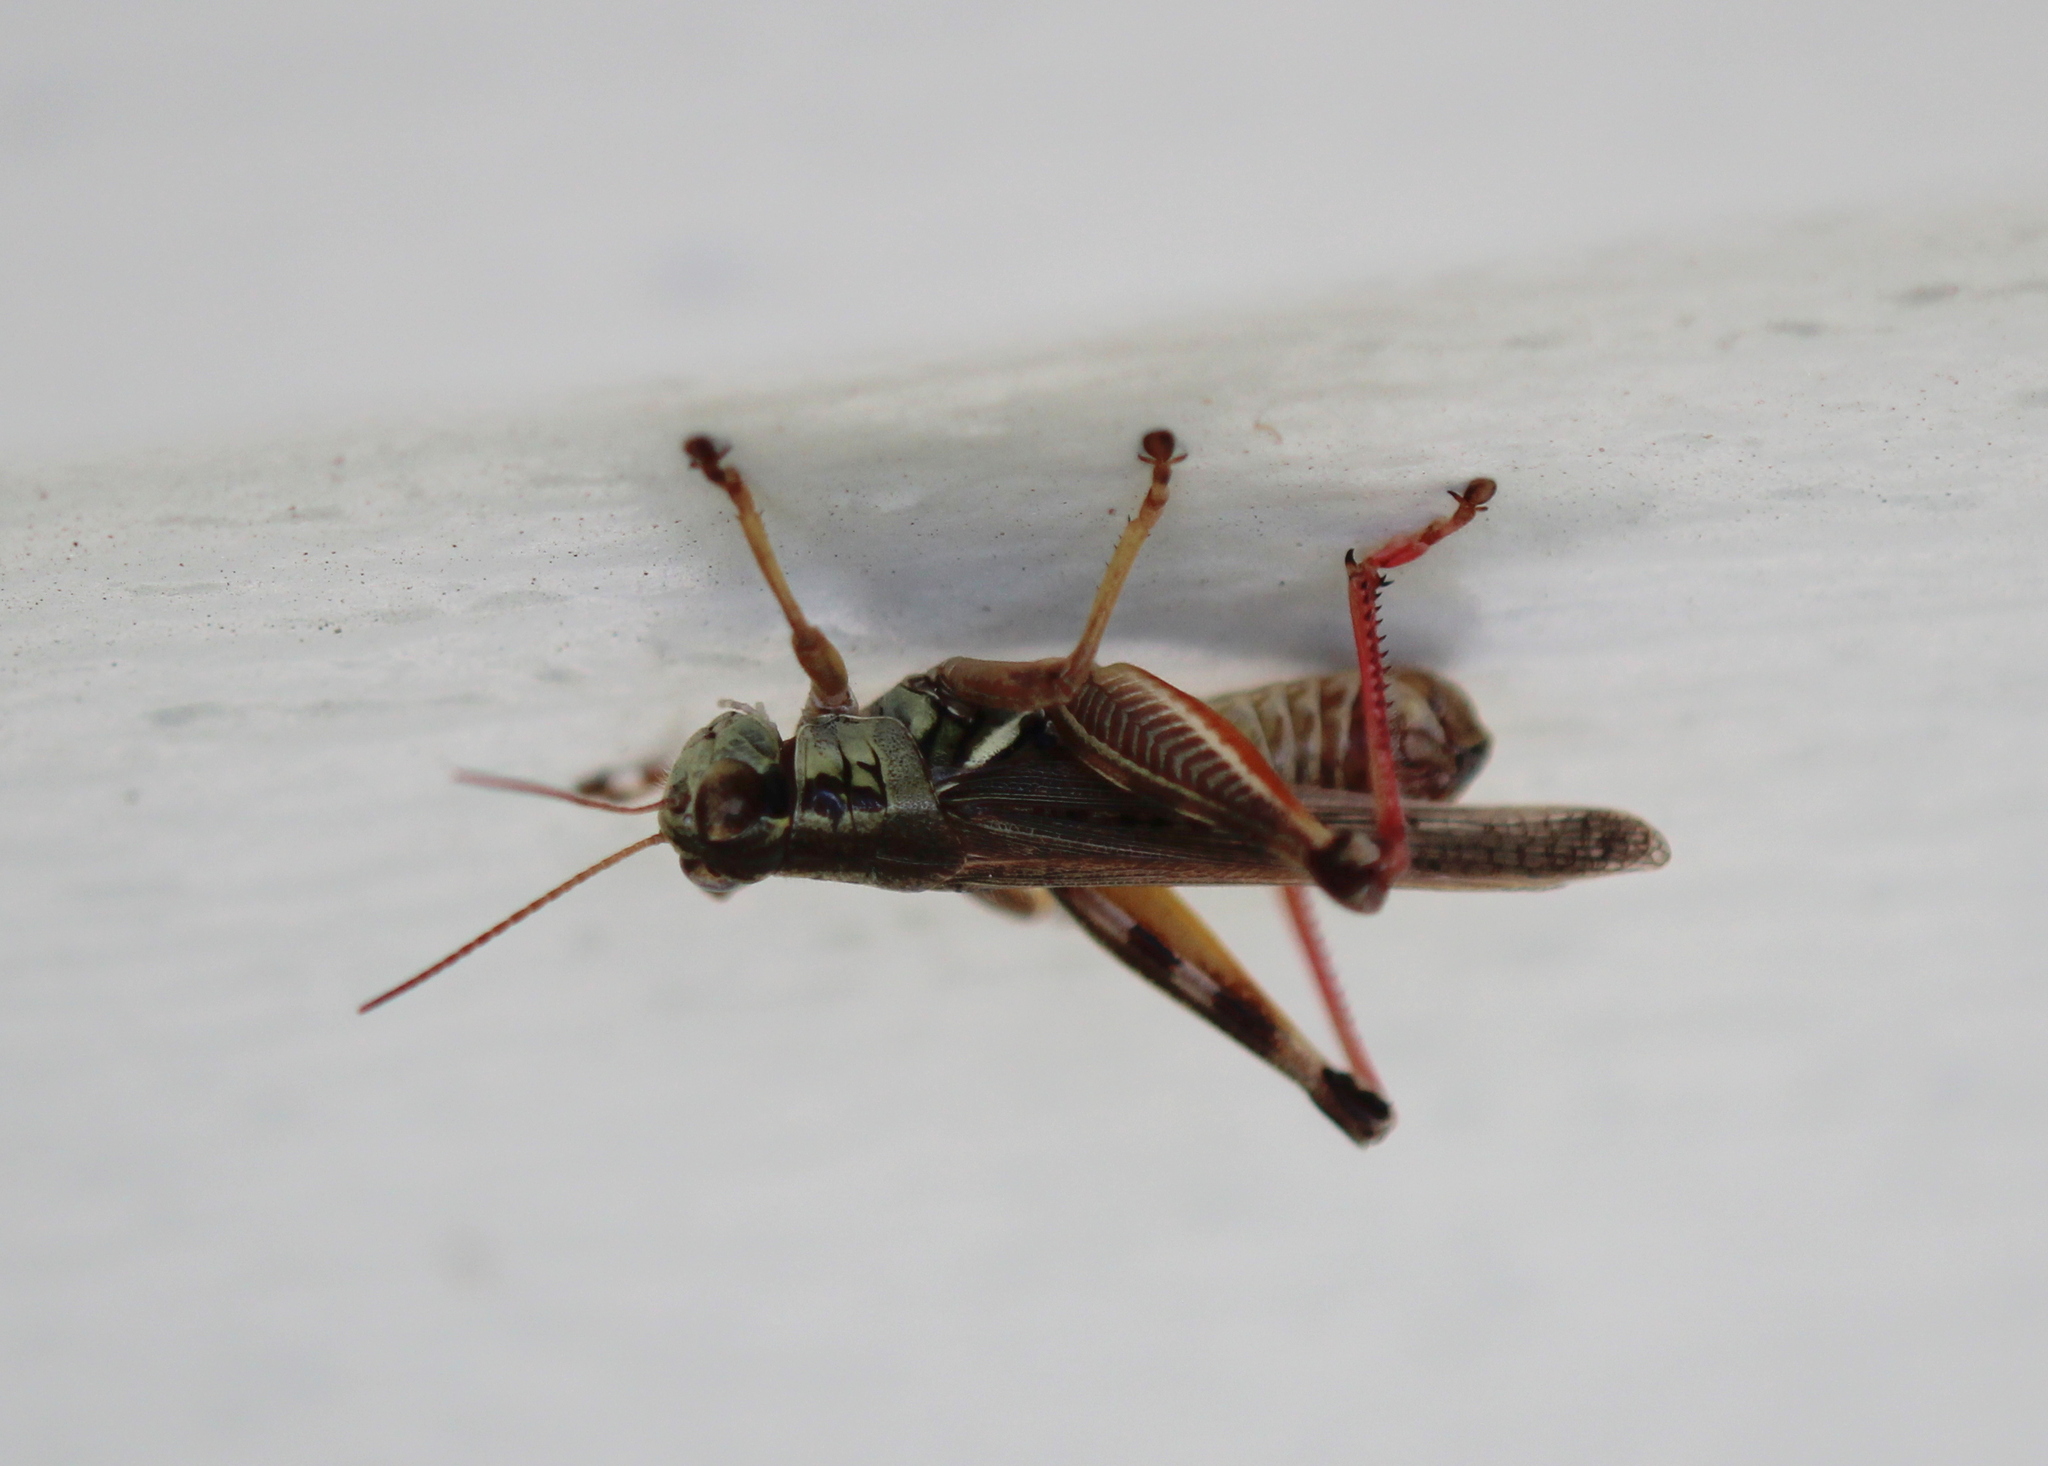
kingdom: Animalia
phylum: Arthropoda
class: Insecta
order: Orthoptera
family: Acrididae
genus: Melanoplus
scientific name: Melanoplus femurrubrum
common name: Red-legged grasshopper
